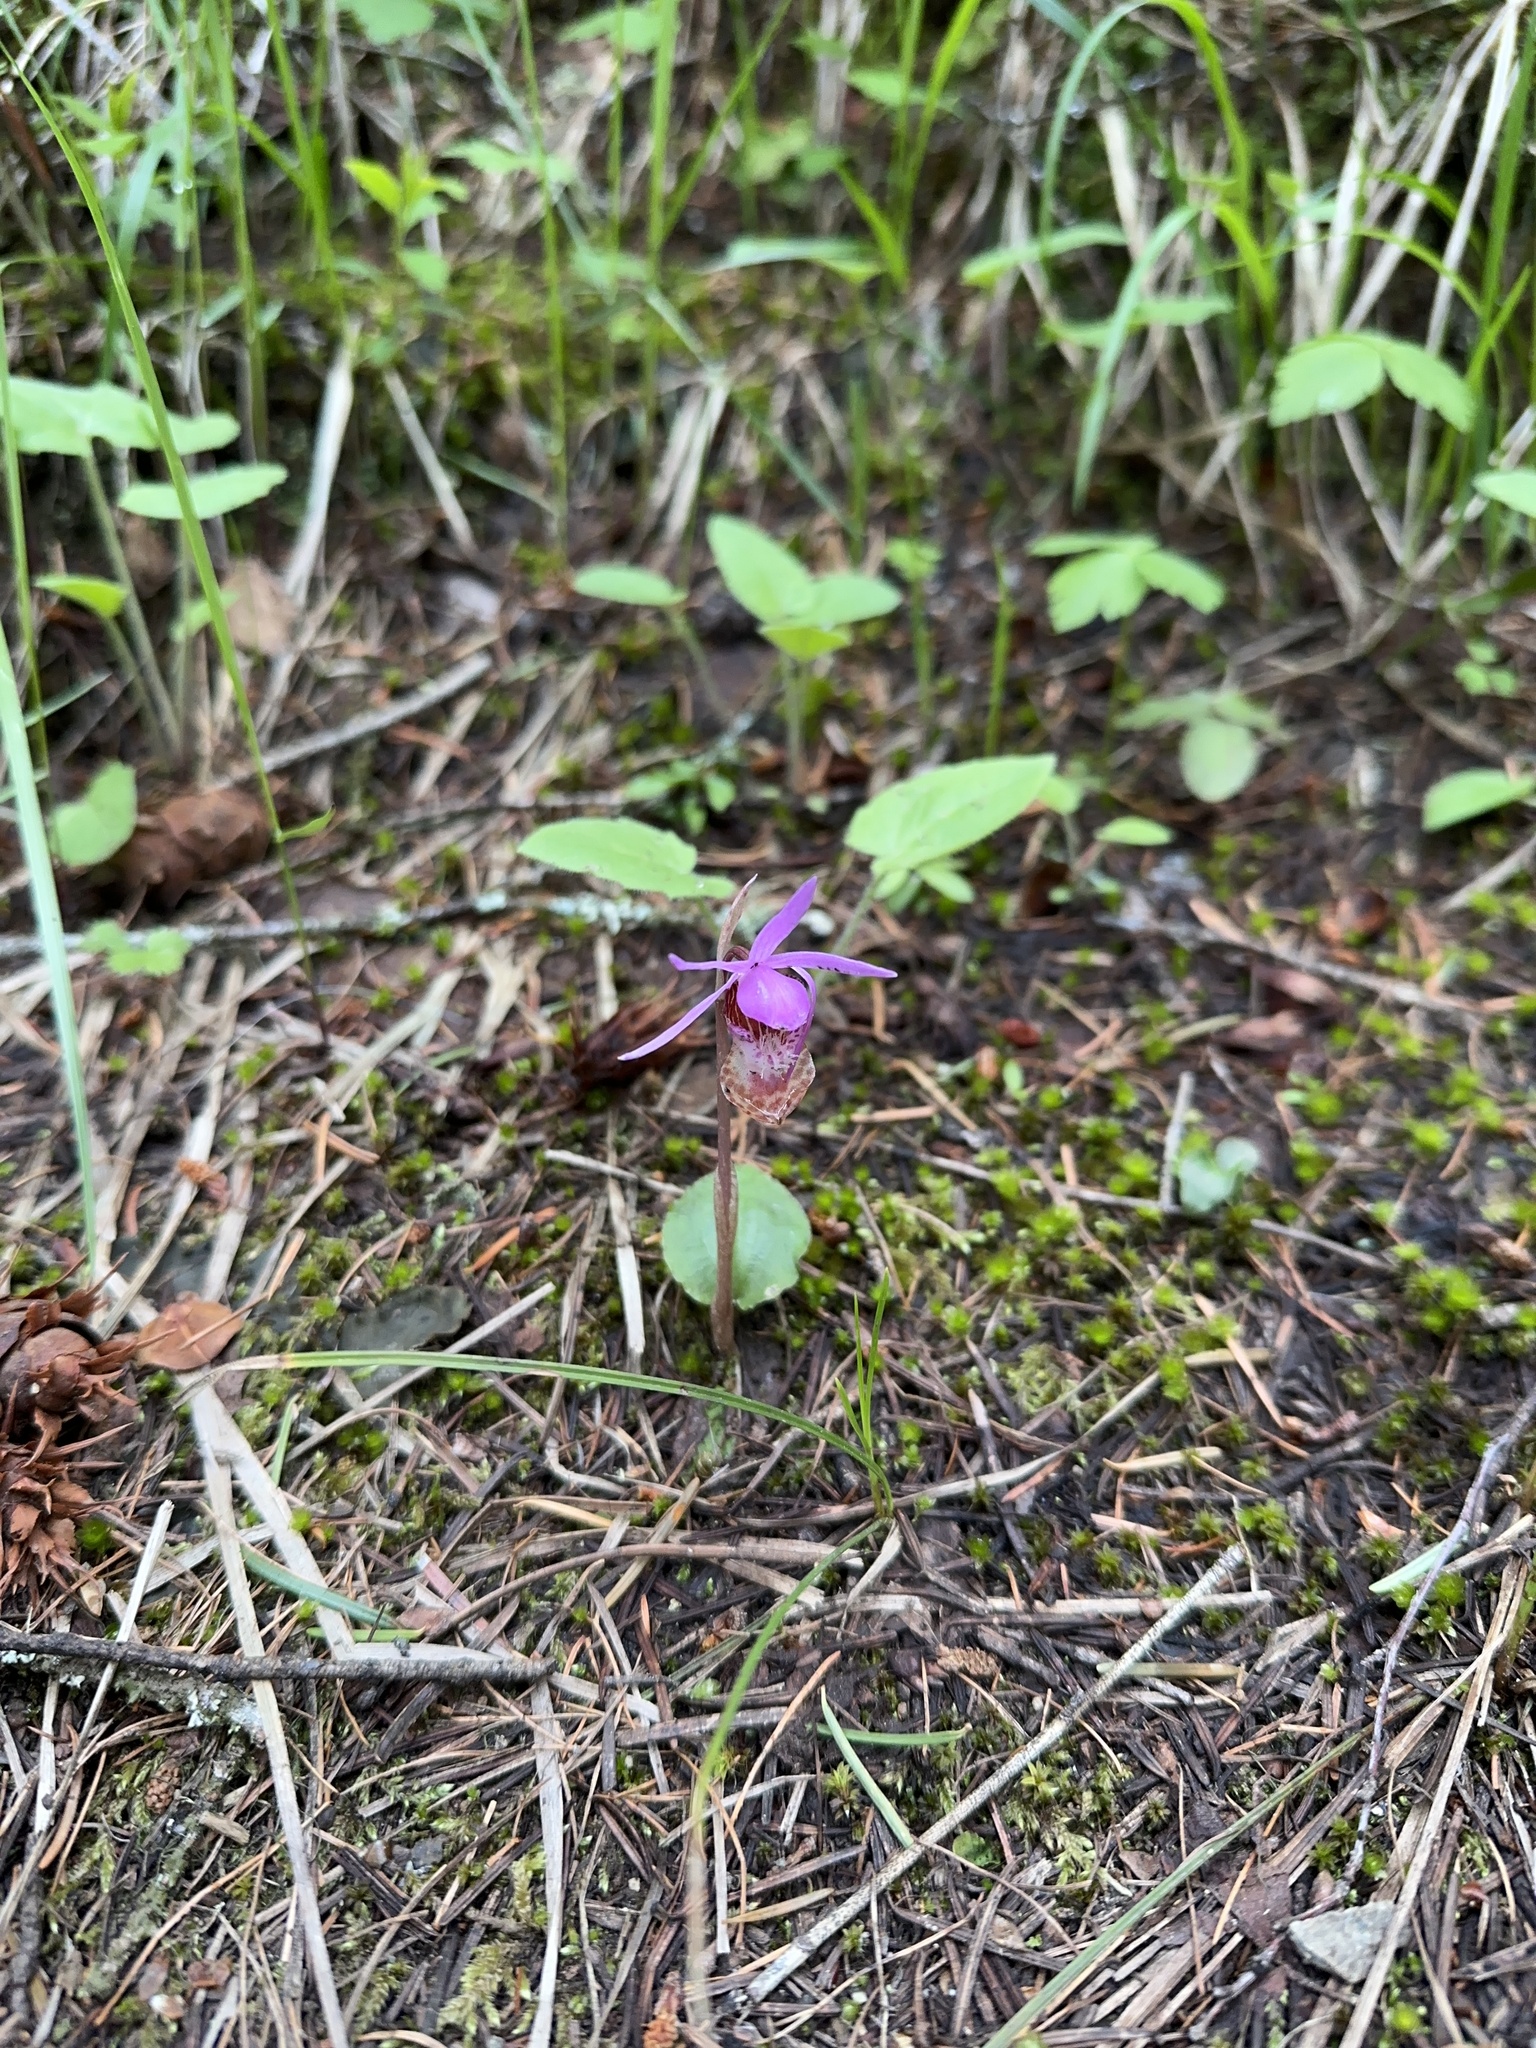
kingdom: Plantae
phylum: Tracheophyta
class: Liliopsida
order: Asparagales
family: Orchidaceae
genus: Calypso
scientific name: Calypso bulbosa
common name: Calypso
